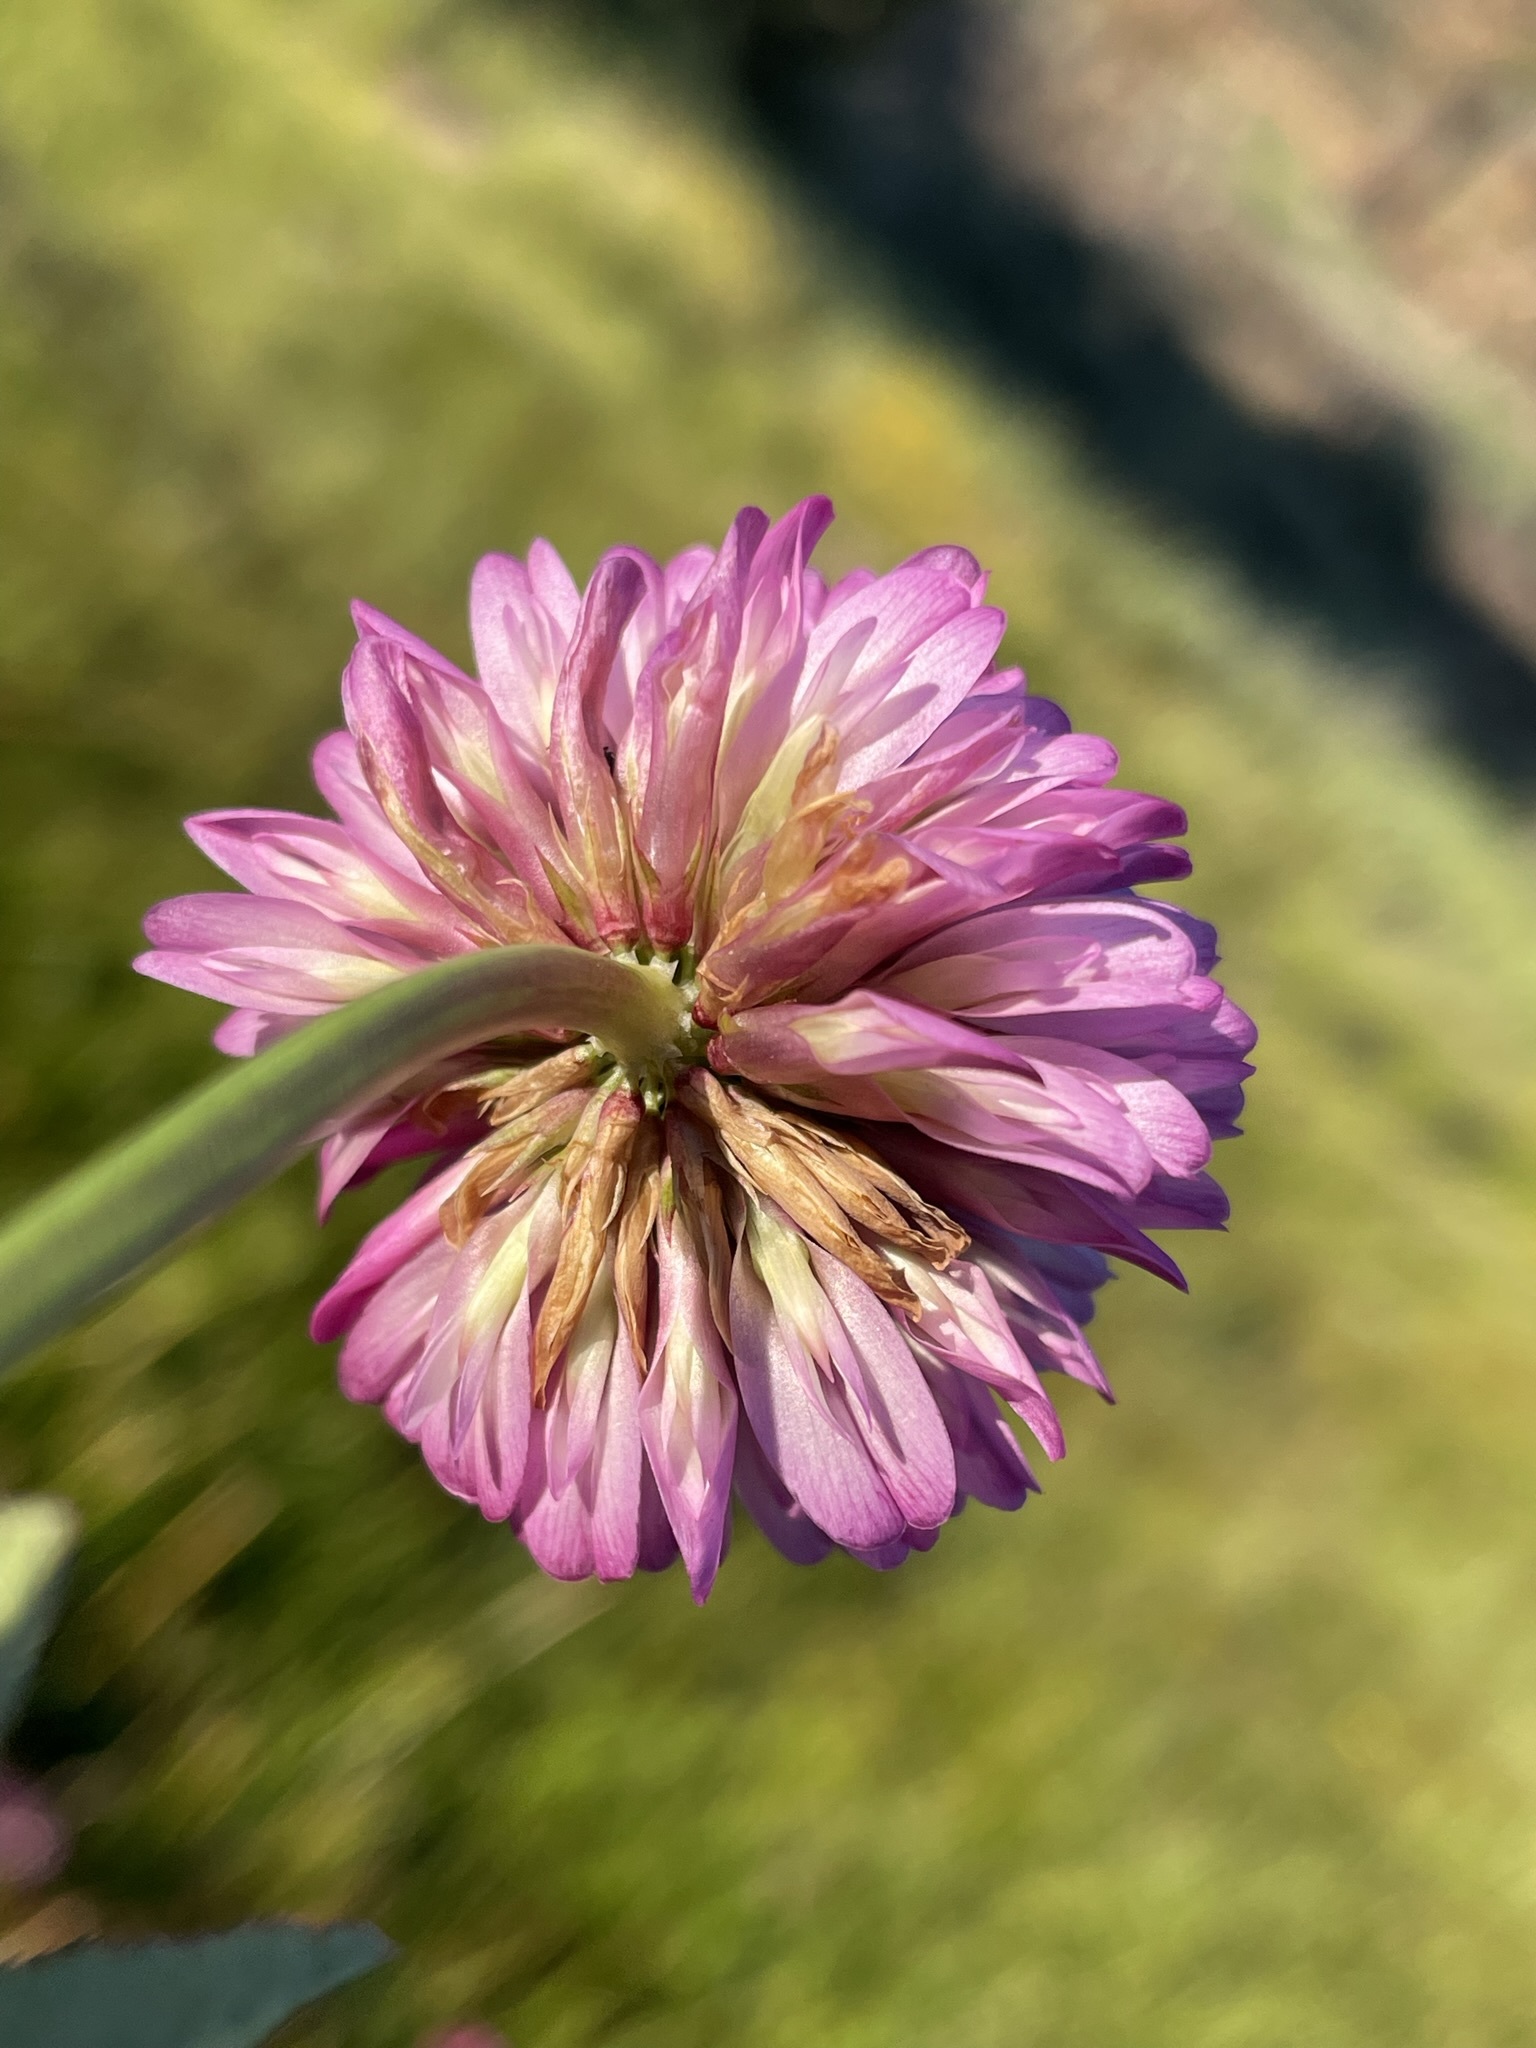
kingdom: Plantae
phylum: Tracheophyta
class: Magnoliopsida
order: Fabales
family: Fabaceae
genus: Trifolium
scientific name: Trifolium beckwithii
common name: Beckwith's clover
